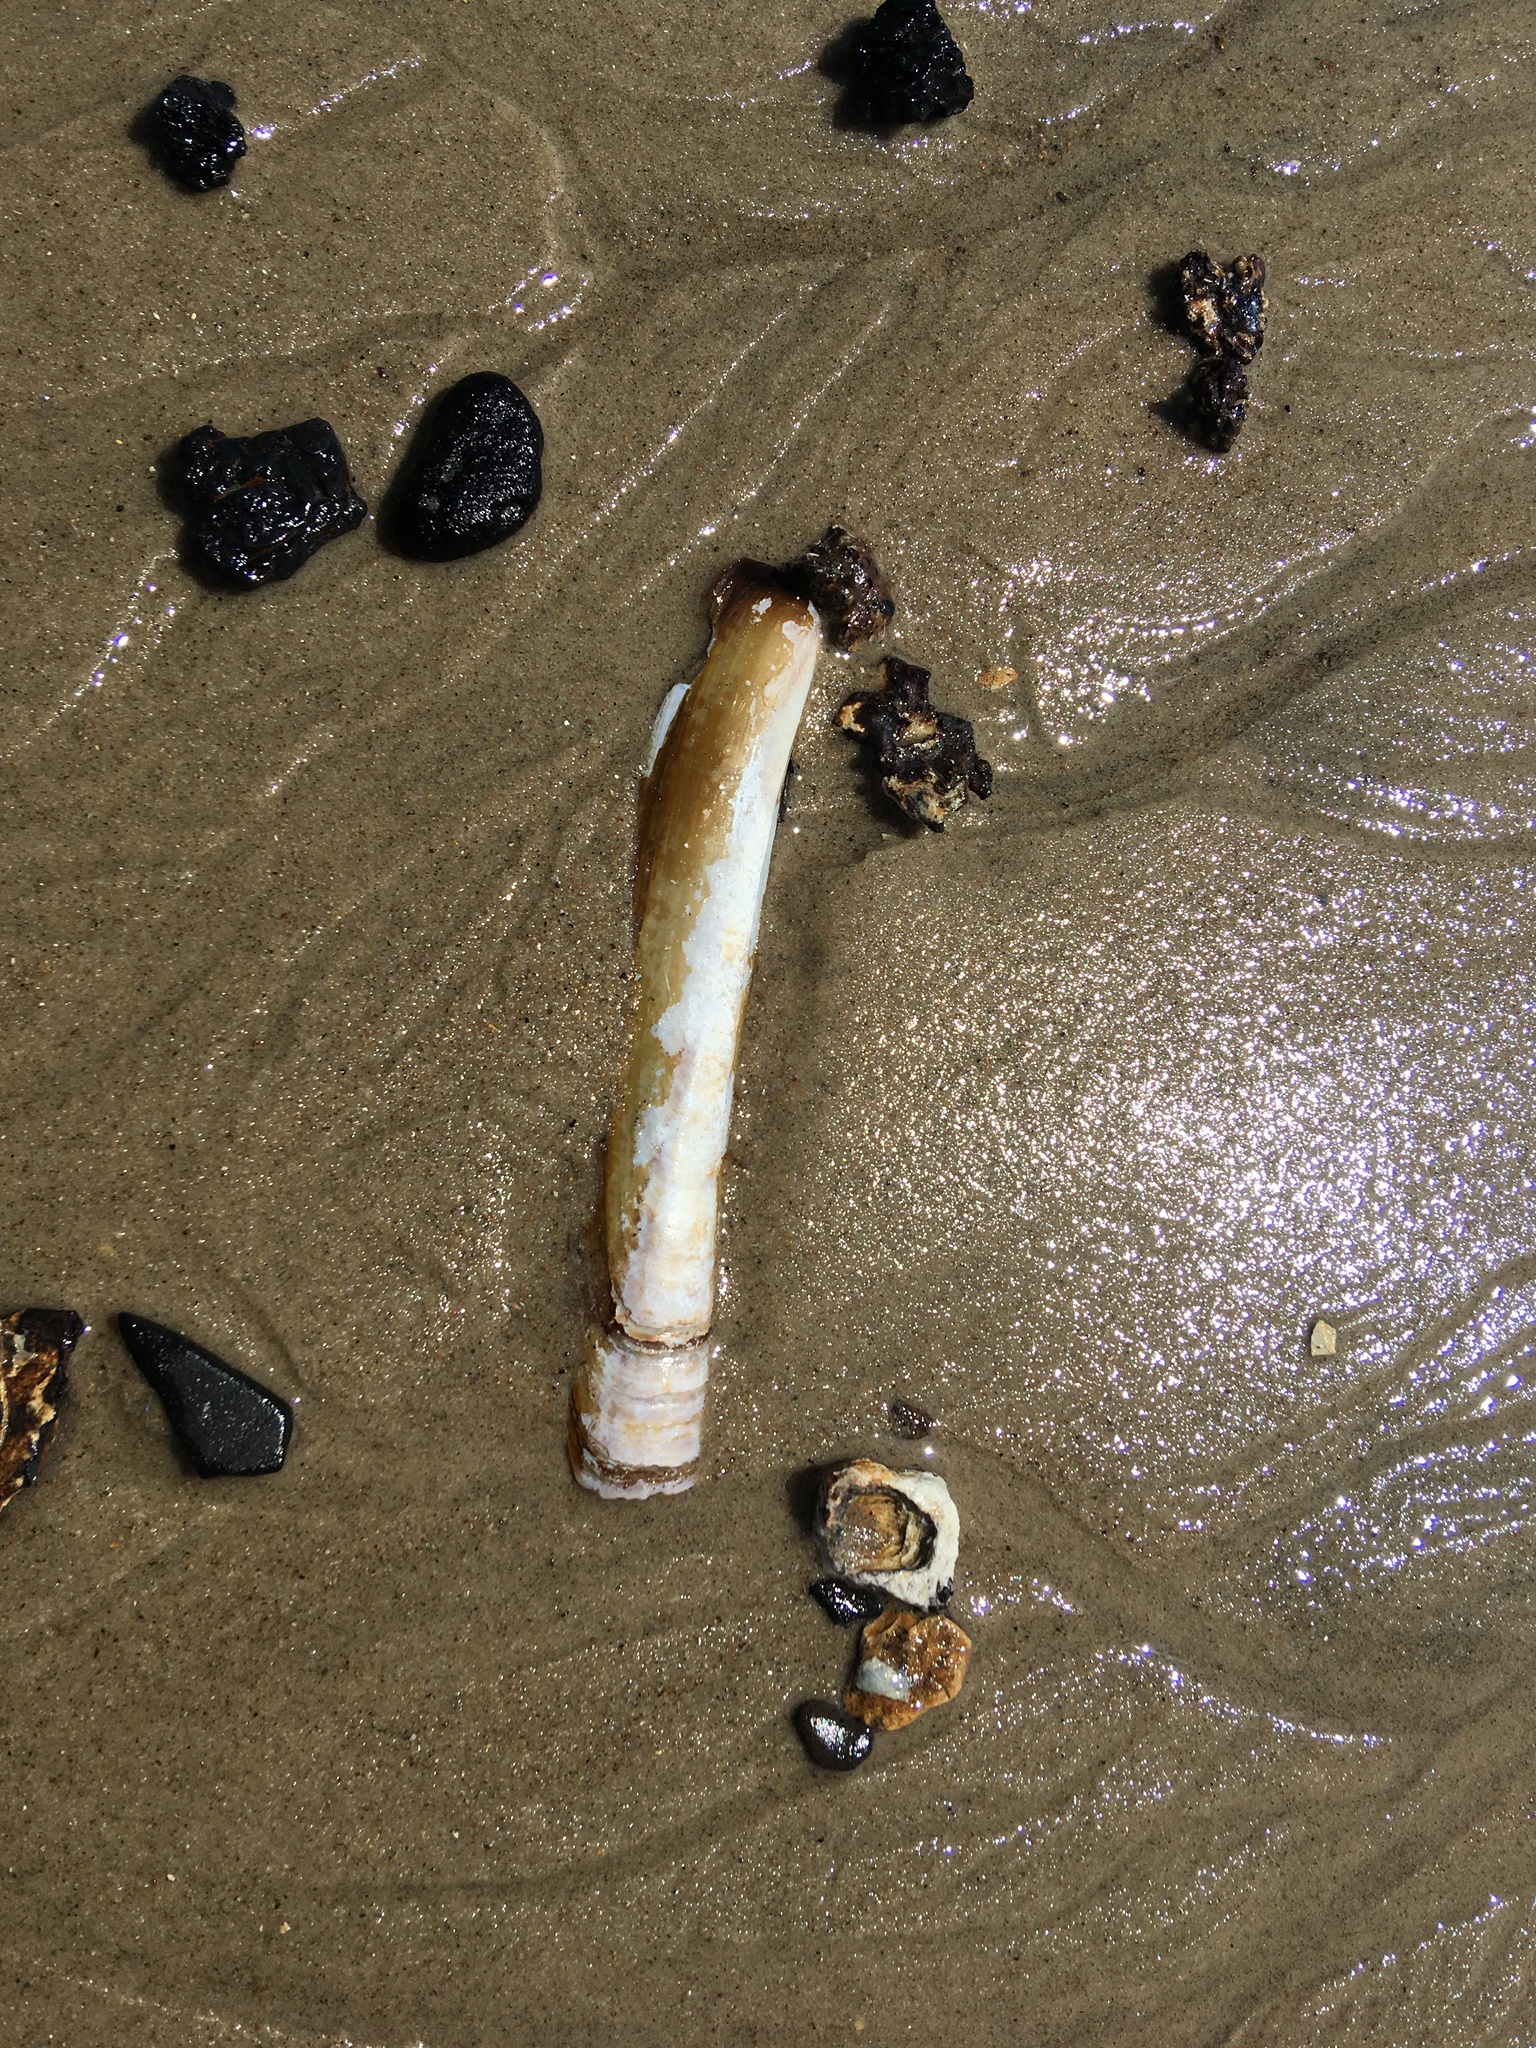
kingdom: Animalia
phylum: Mollusca
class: Bivalvia
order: Adapedonta
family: Pharidae
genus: Ensis
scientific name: Ensis leei
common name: American jack knife clam
